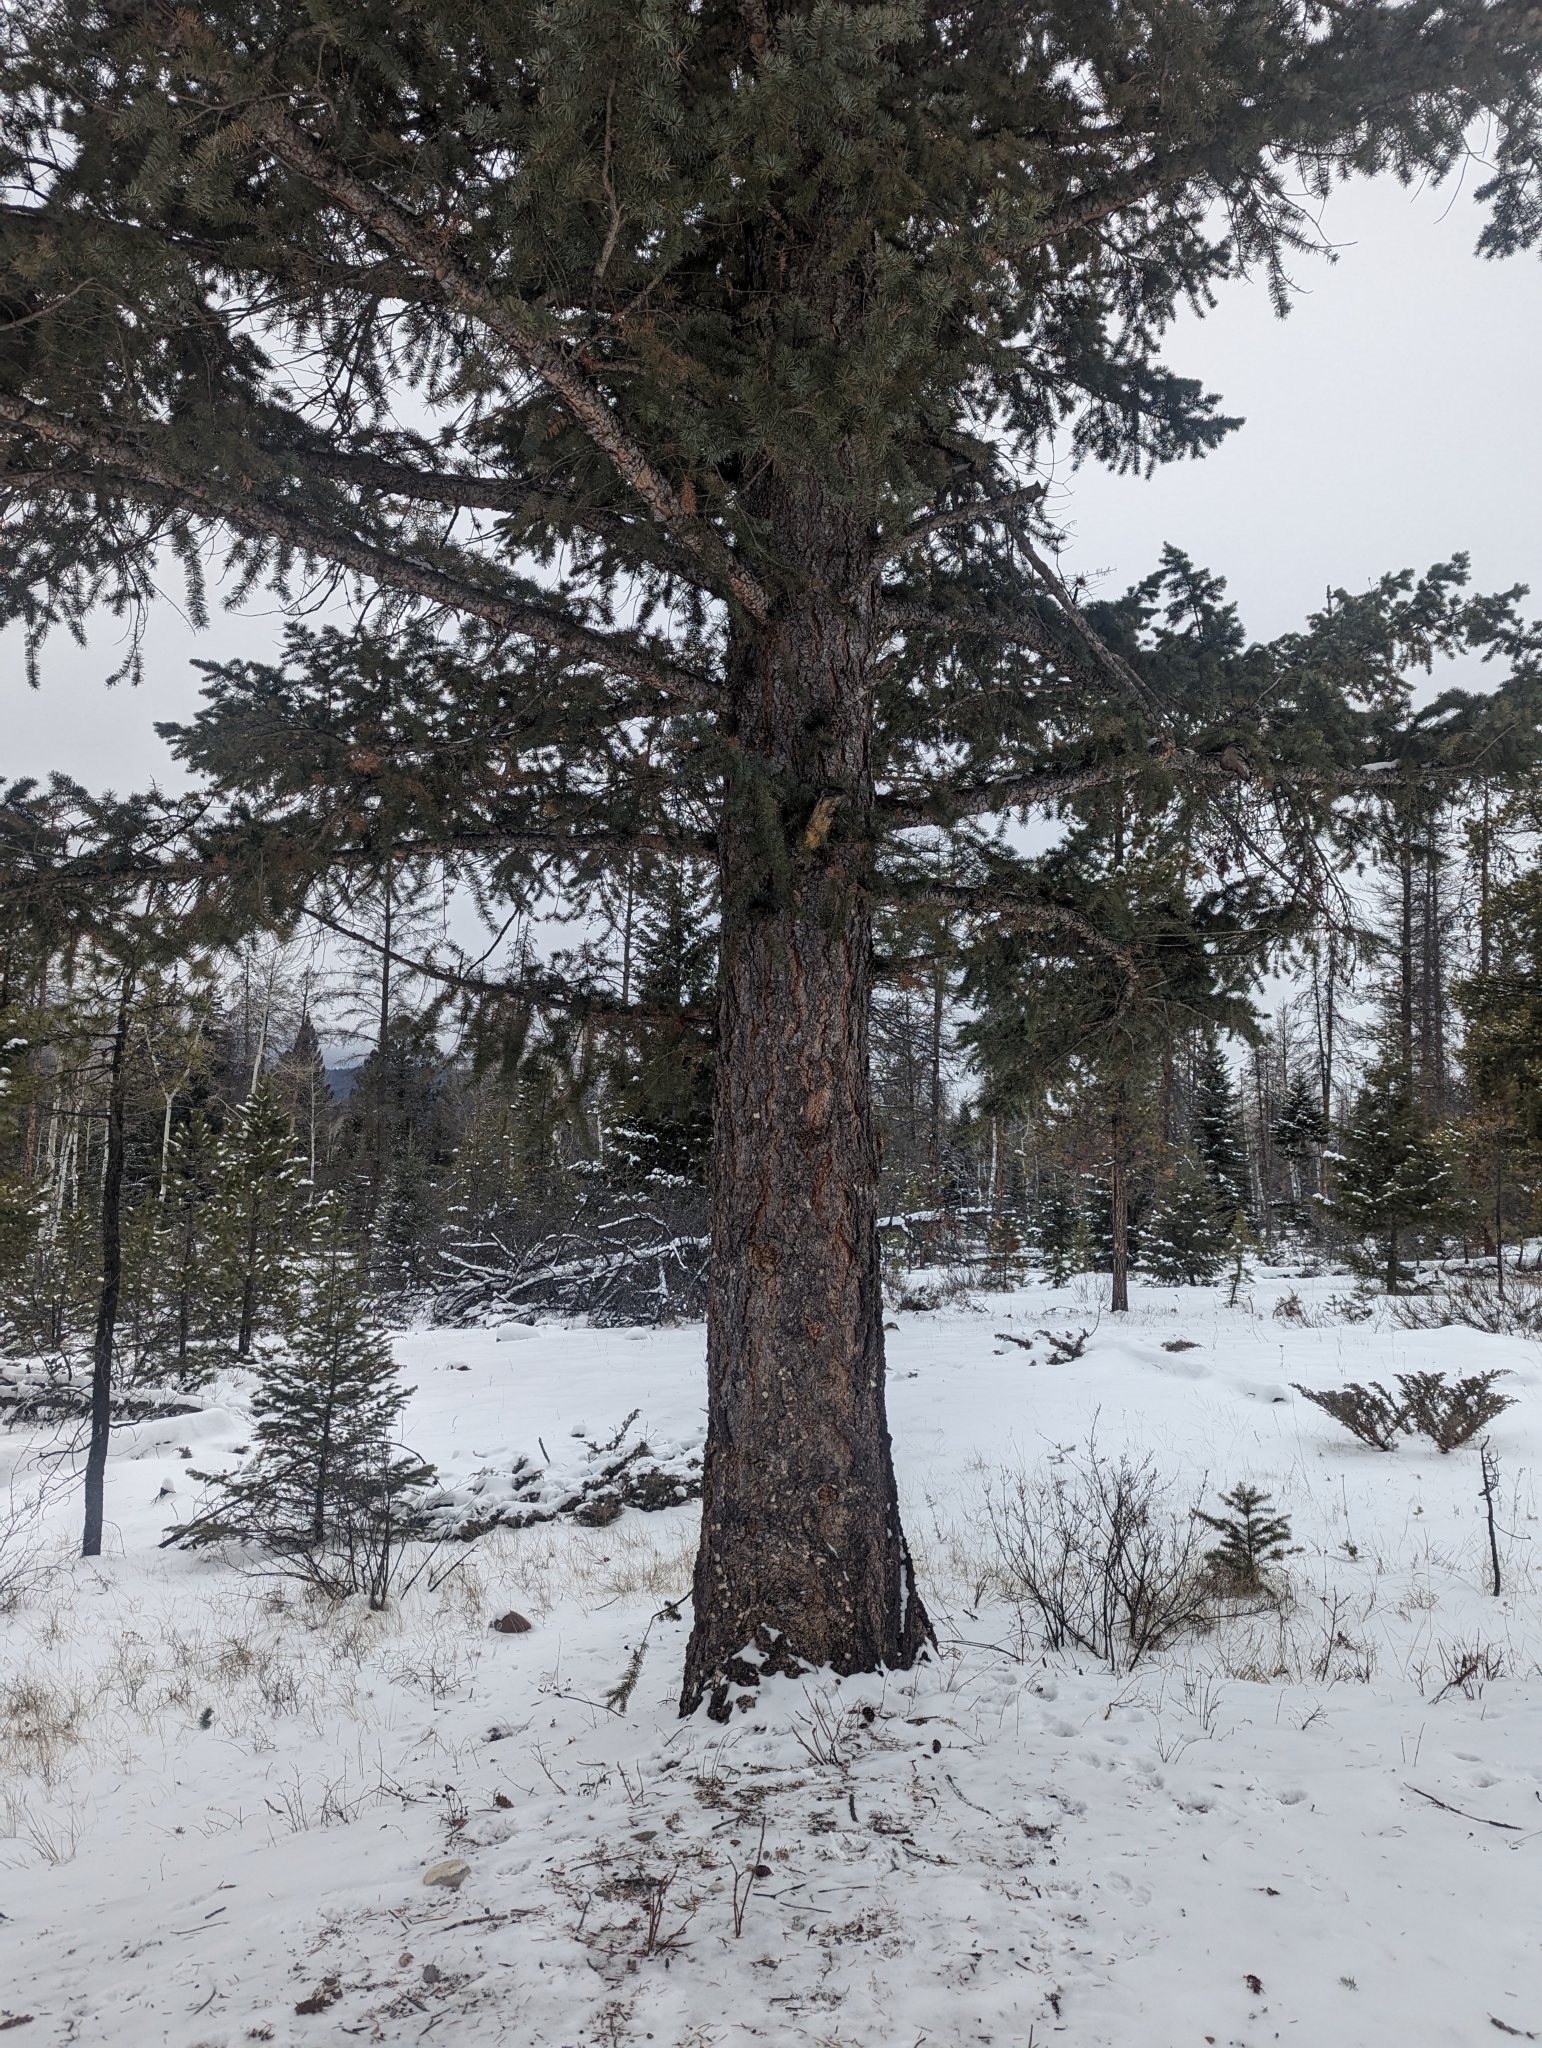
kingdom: Plantae
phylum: Tracheophyta
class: Pinopsida
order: Pinales
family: Pinaceae
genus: Pseudotsuga
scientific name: Pseudotsuga menziesii
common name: Douglas fir
